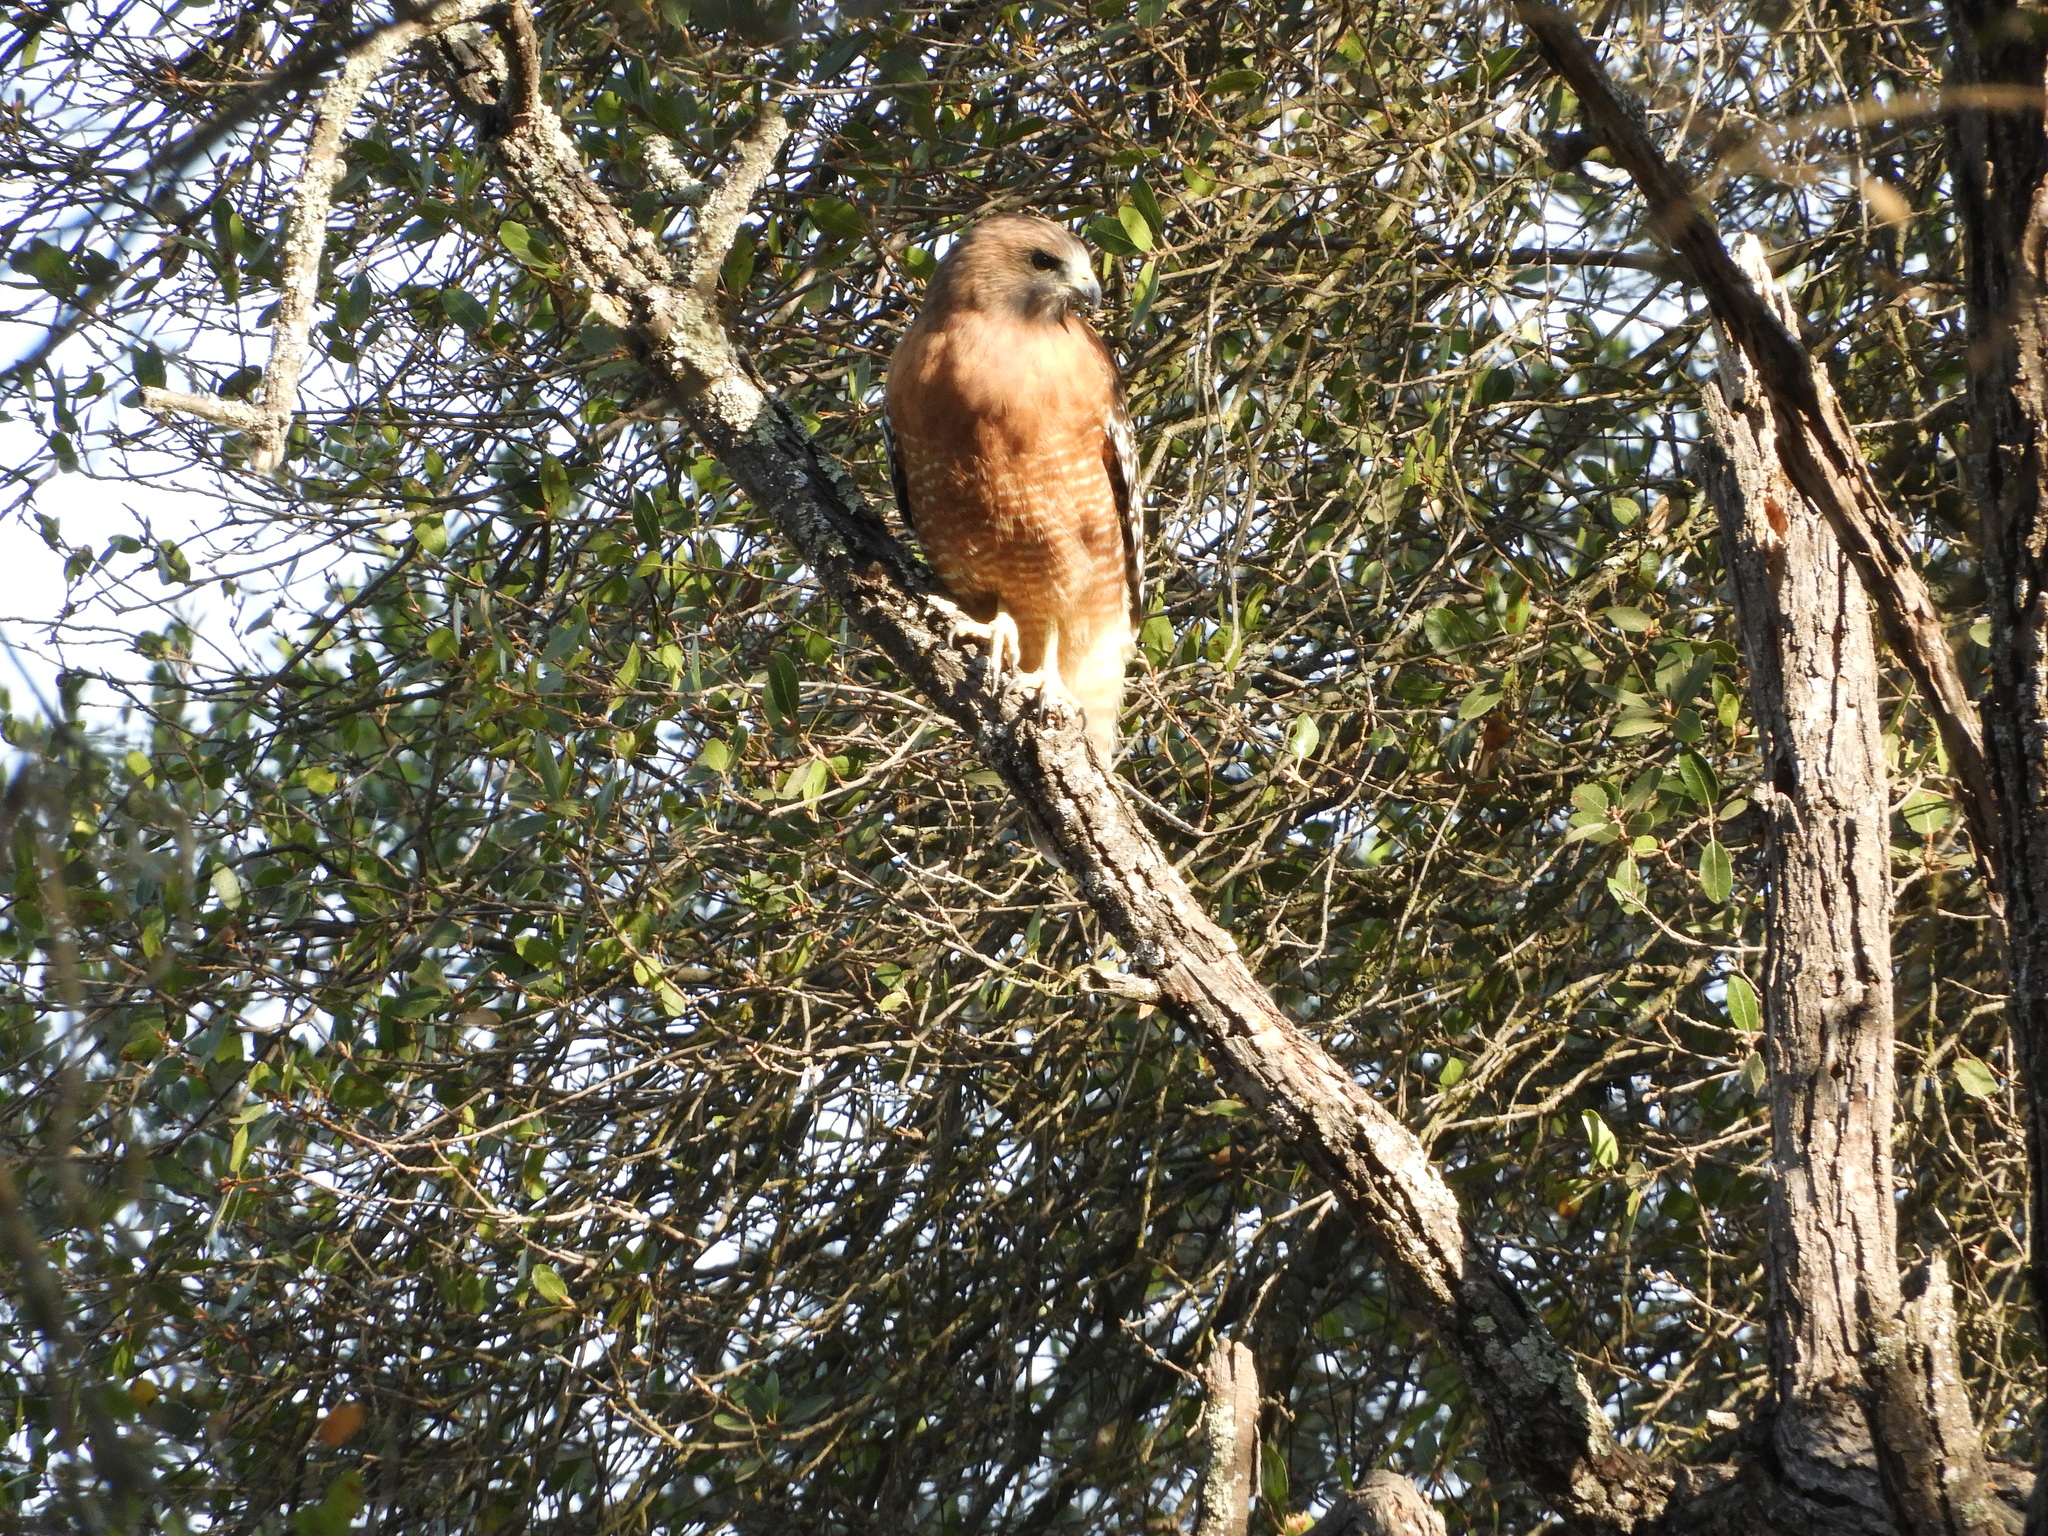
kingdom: Animalia
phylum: Chordata
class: Aves
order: Accipitriformes
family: Accipitridae
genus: Buteo
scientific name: Buteo lineatus
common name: Red-shouldered hawk
